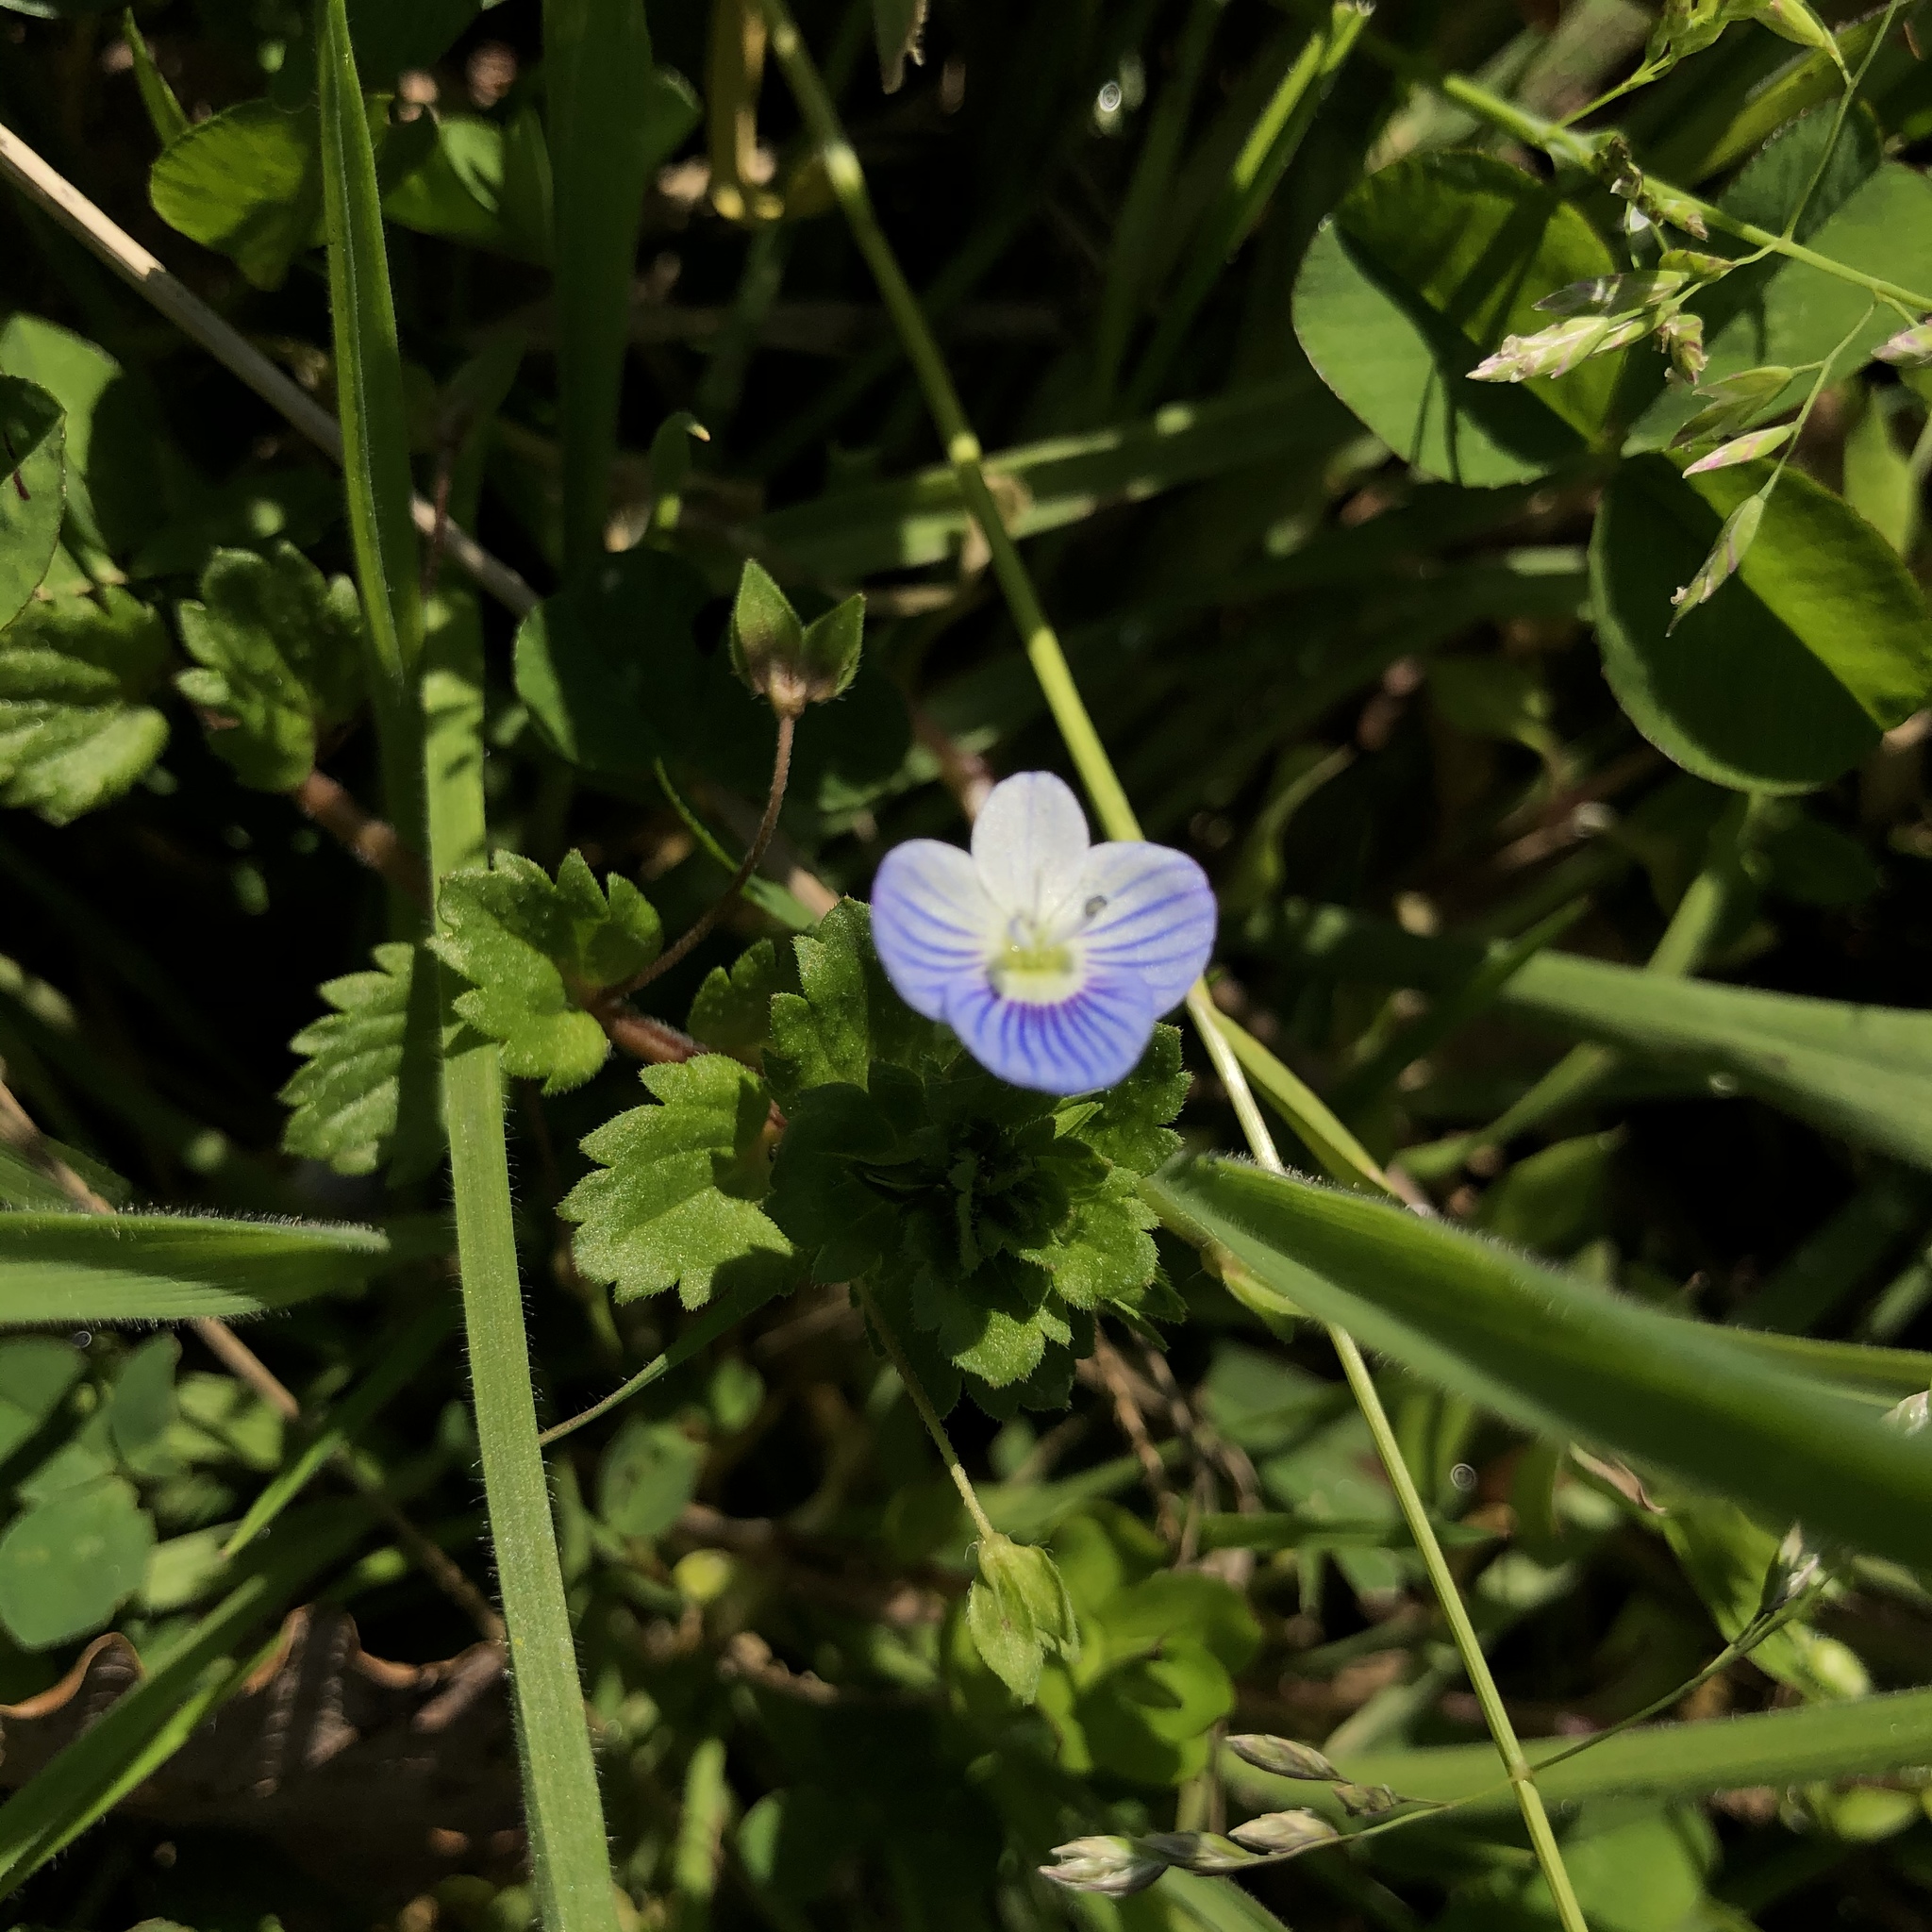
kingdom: Plantae
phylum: Tracheophyta
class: Magnoliopsida
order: Lamiales
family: Plantaginaceae
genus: Veronica
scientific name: Veronica persica
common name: Common field-speedwell
